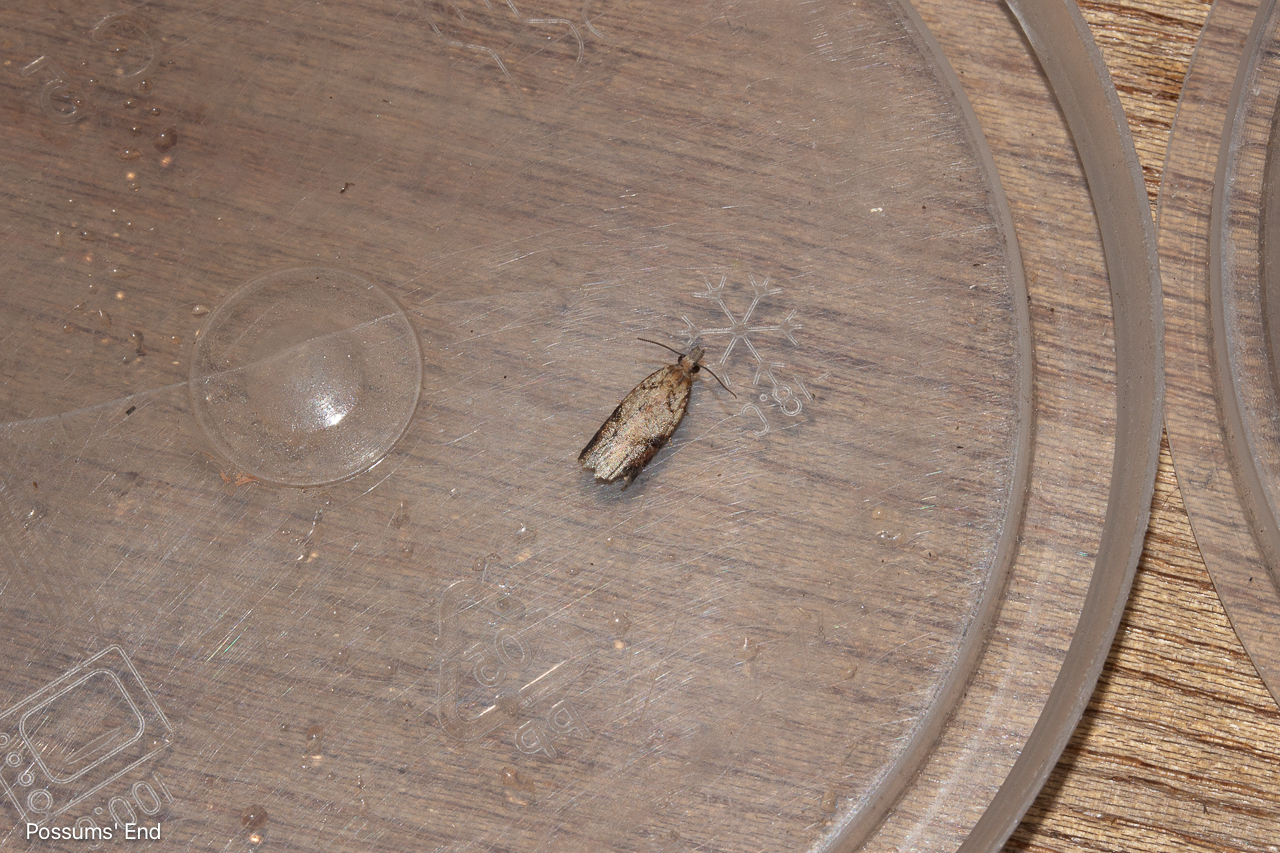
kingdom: Animalia
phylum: Arthropoda
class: Insecta
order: Lepidoptera
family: Tortricidae
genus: Capua
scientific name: Capua semiferana
